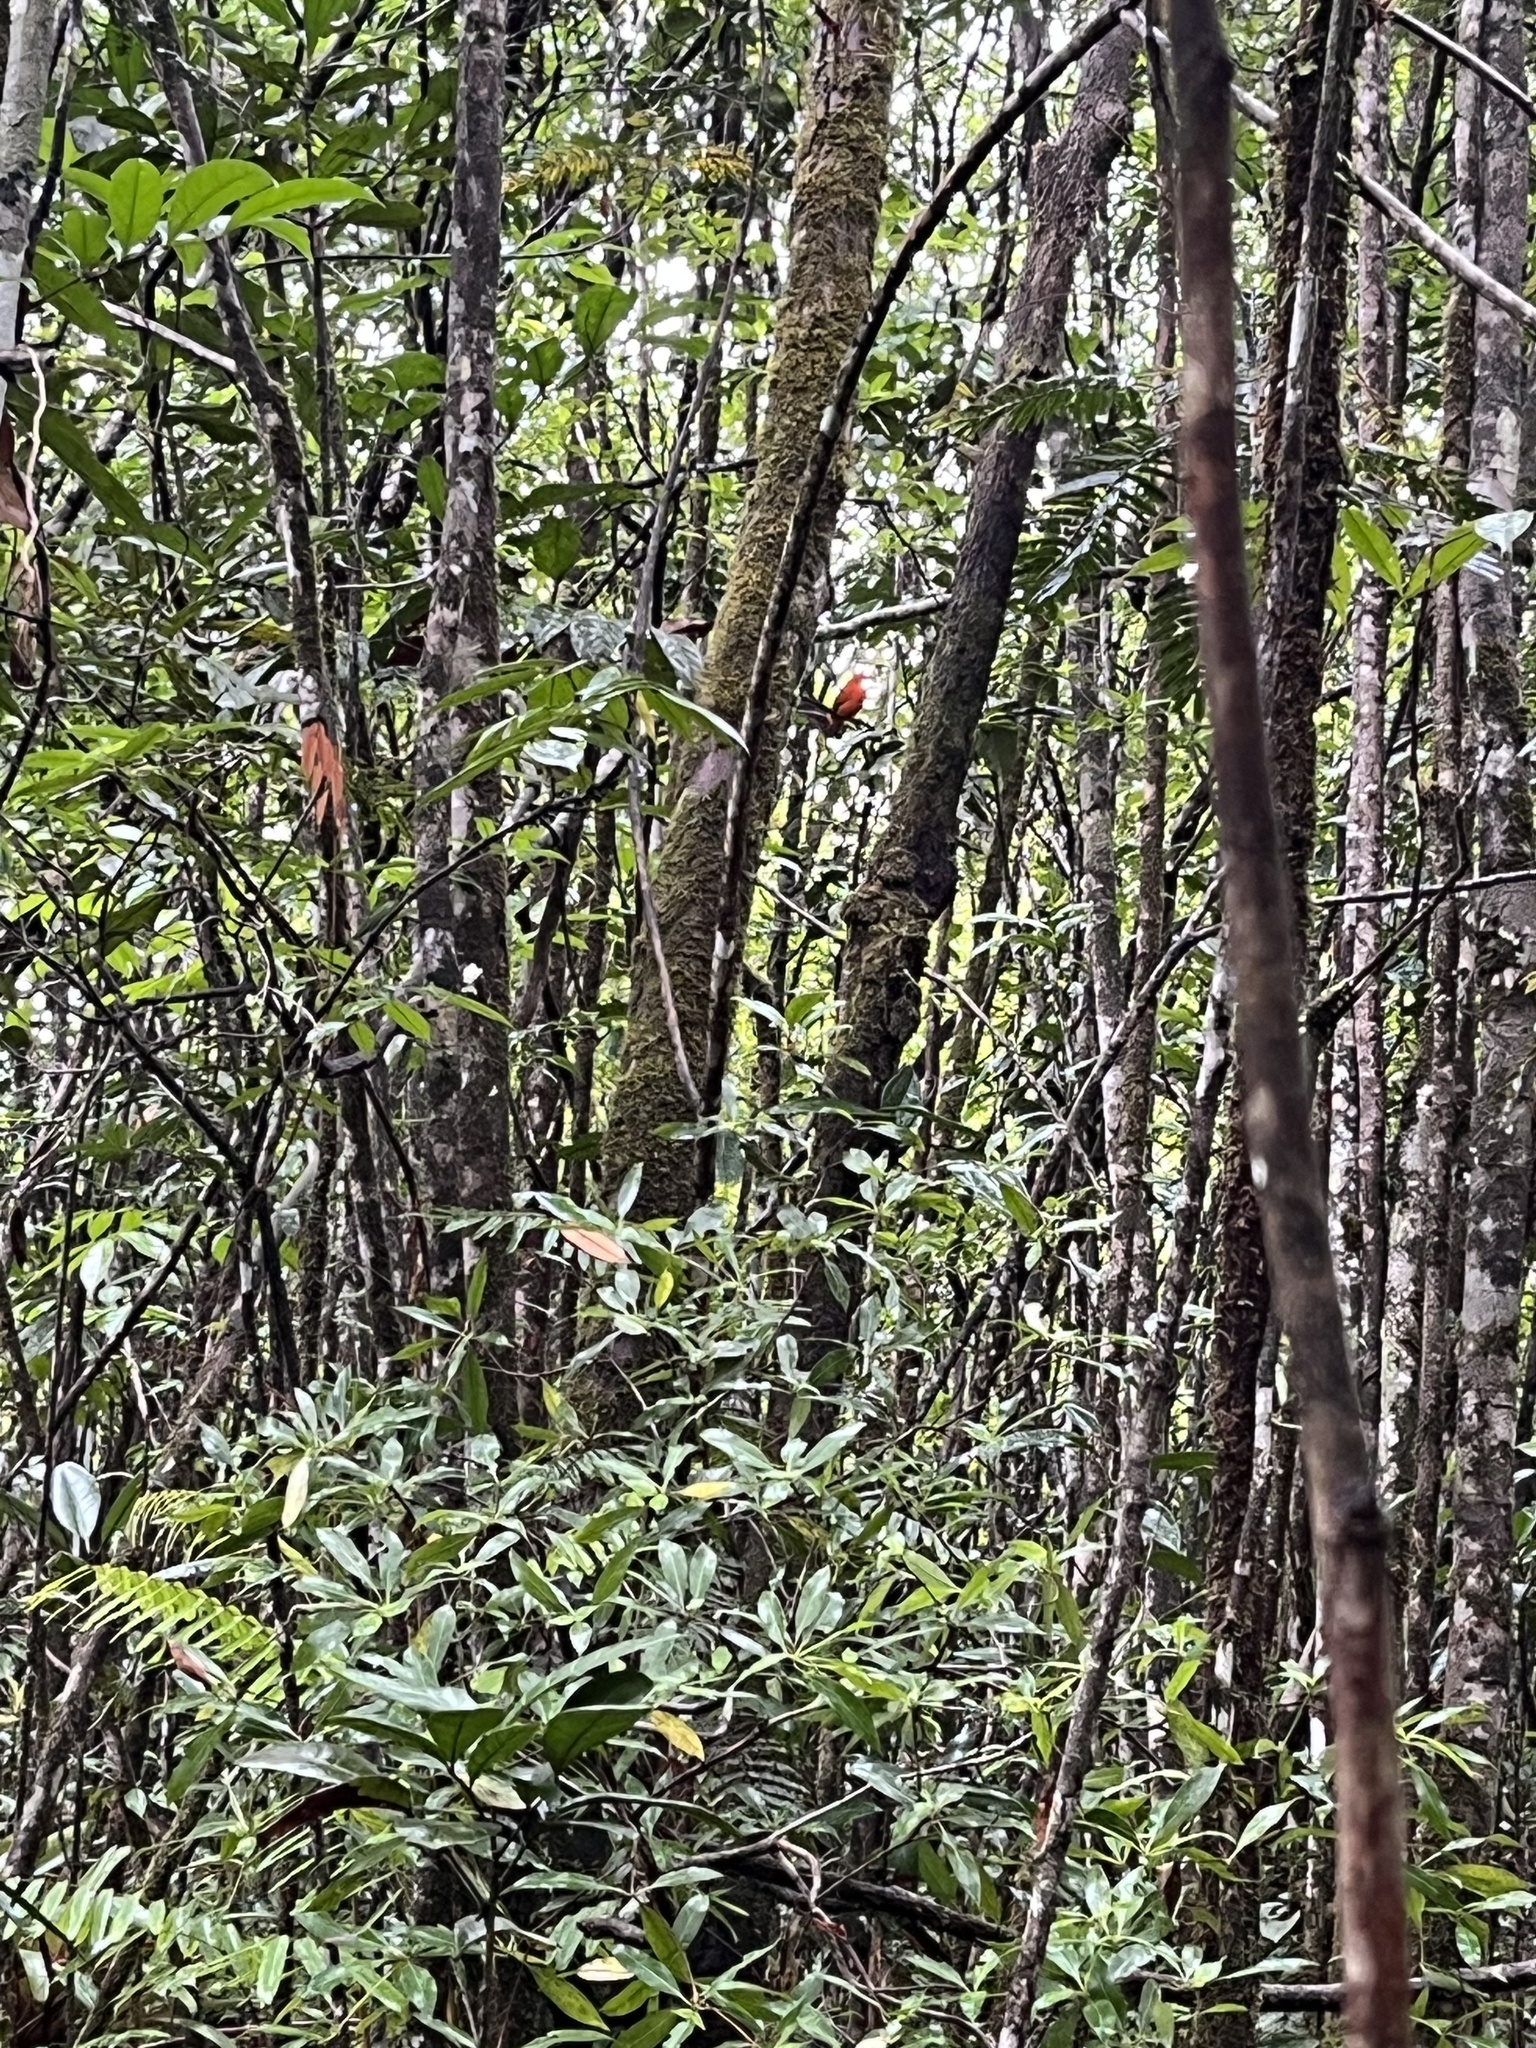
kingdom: Animalia
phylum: Chordata
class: Aves
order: Passeriformes
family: Cotingidae
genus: Rupicola
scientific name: Rupicola rupicola
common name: Guianan cock-of-the-rock
